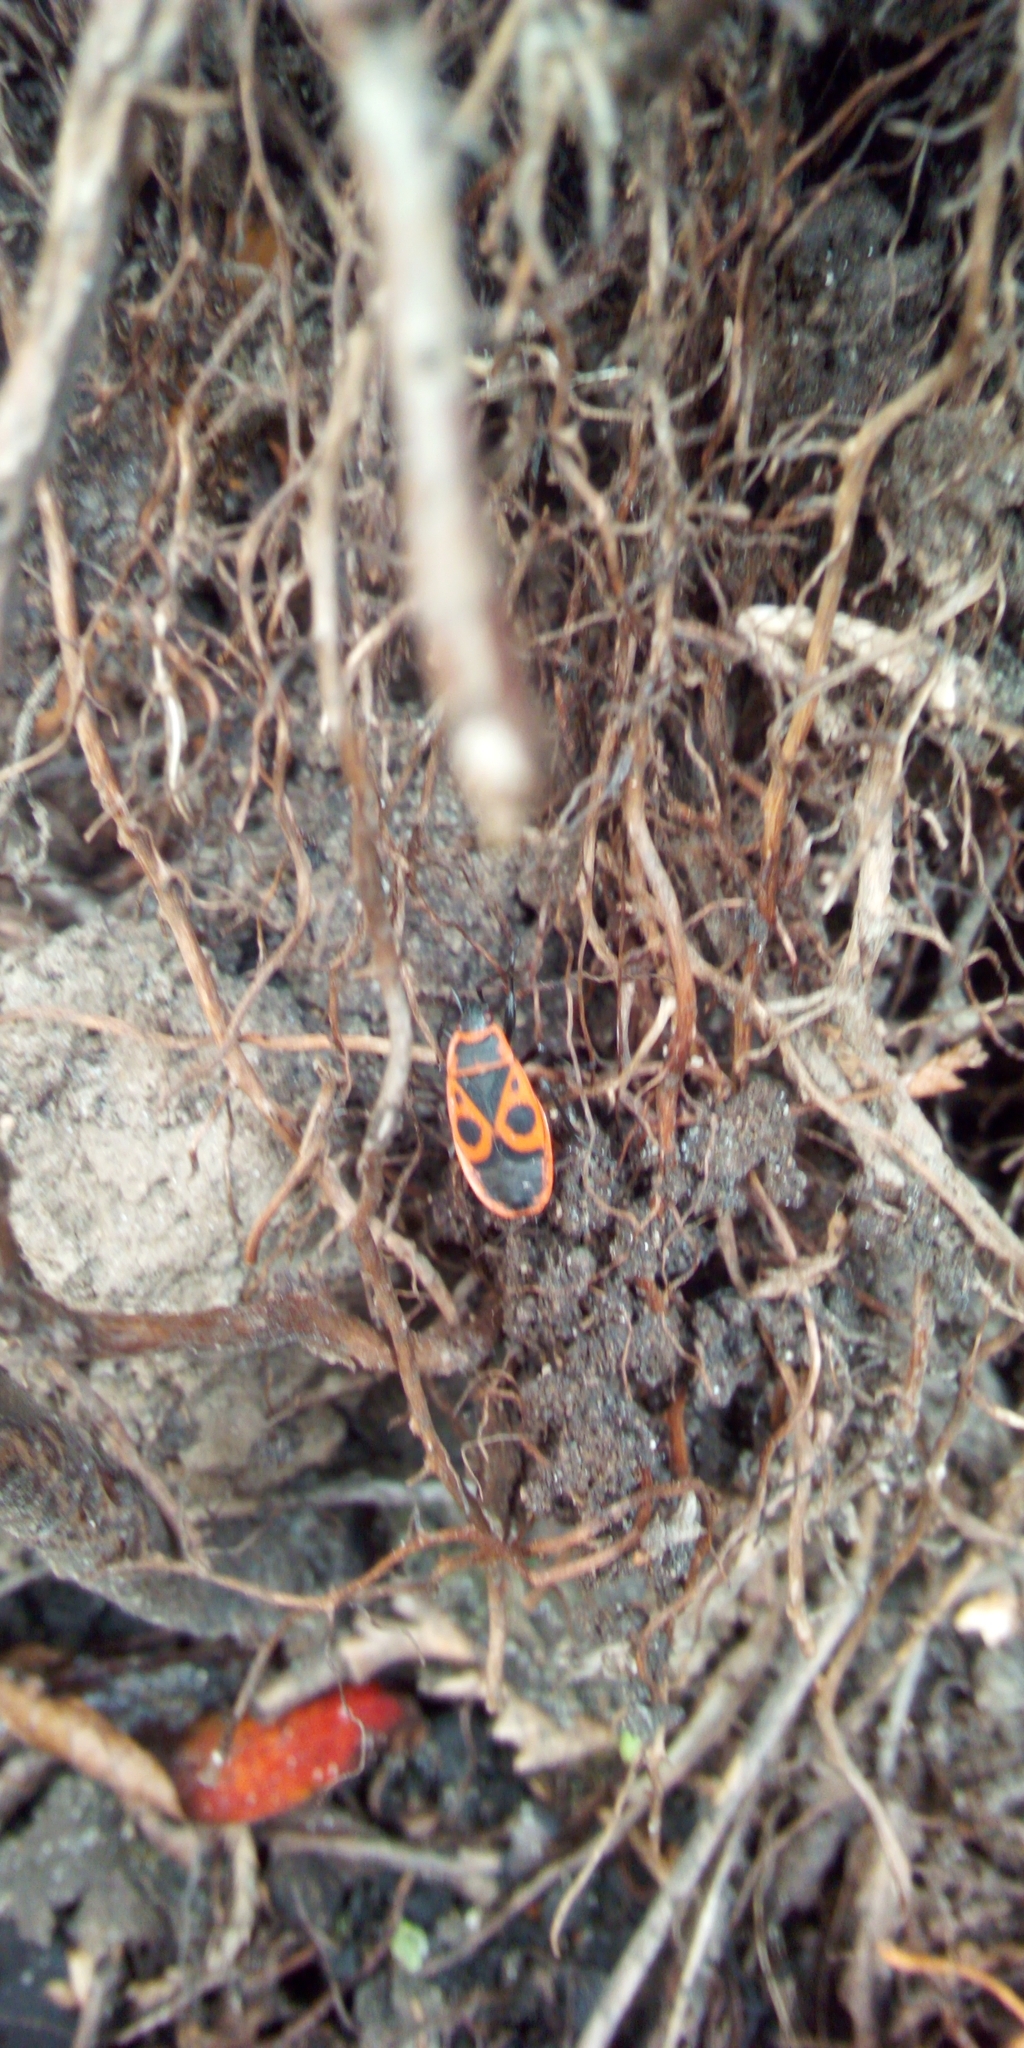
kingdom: Animalia
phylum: Arthropoda
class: Insecta
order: Hemiptera
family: Pyrrhocoridae
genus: Pyrrhocoris
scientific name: Pyrrhocoris apterus
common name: Firebug
